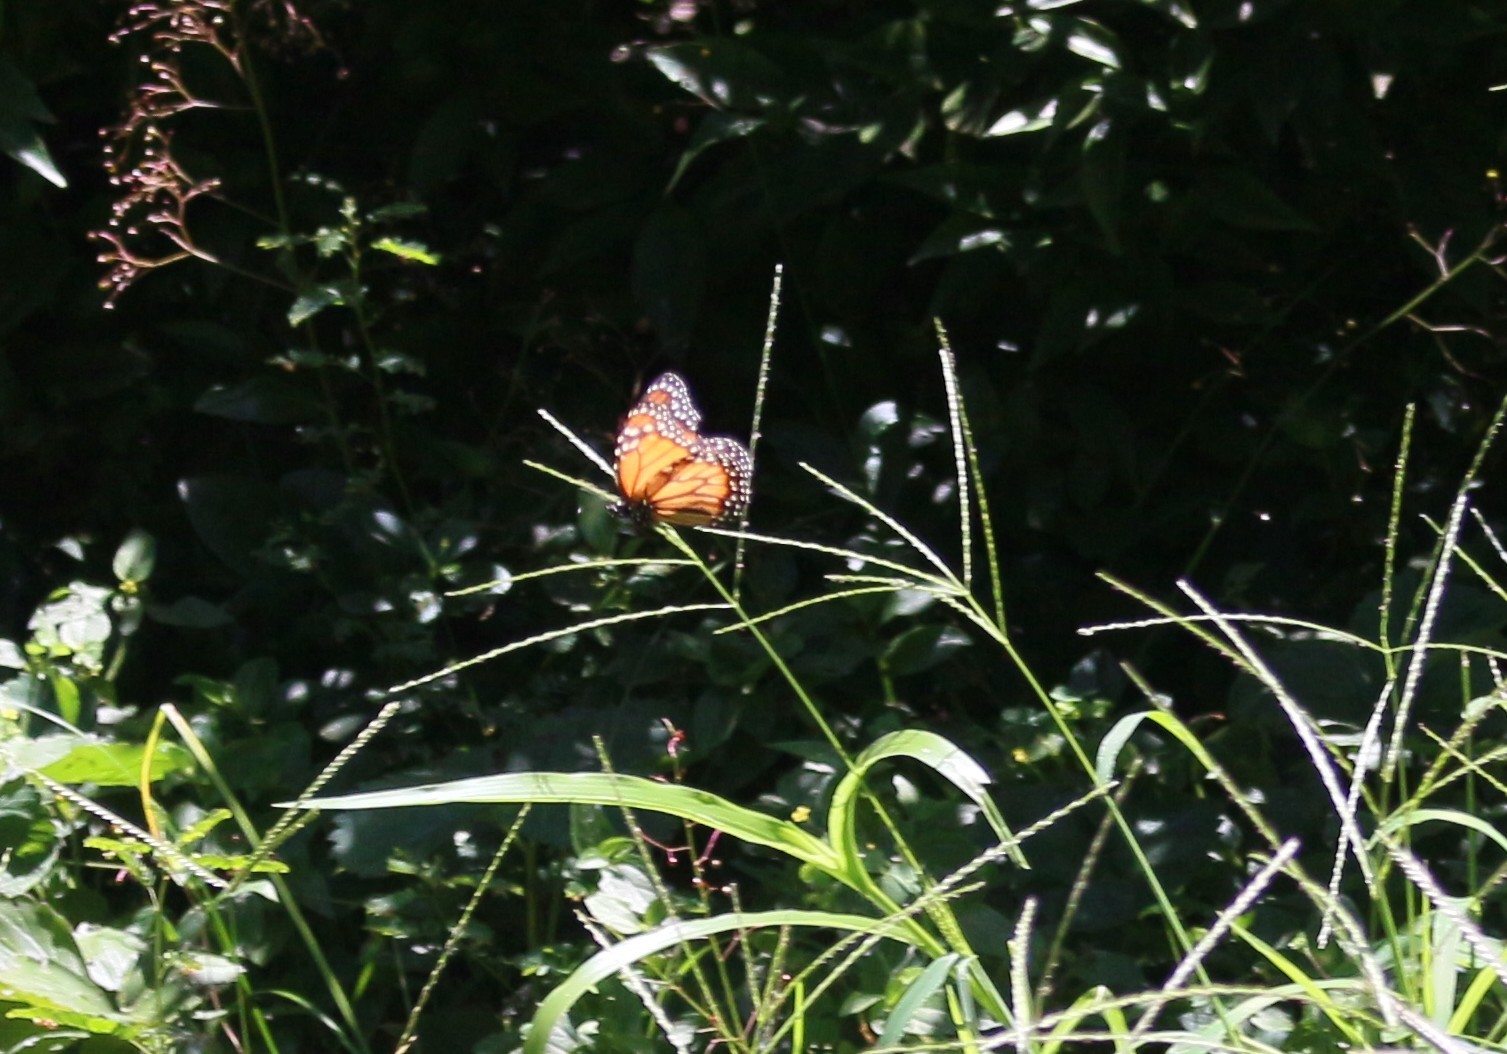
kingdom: Animalia
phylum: Arthropoda
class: Insecta
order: Lepidoptera
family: Nymphalidae
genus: Danaus
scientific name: Danaus erippus
